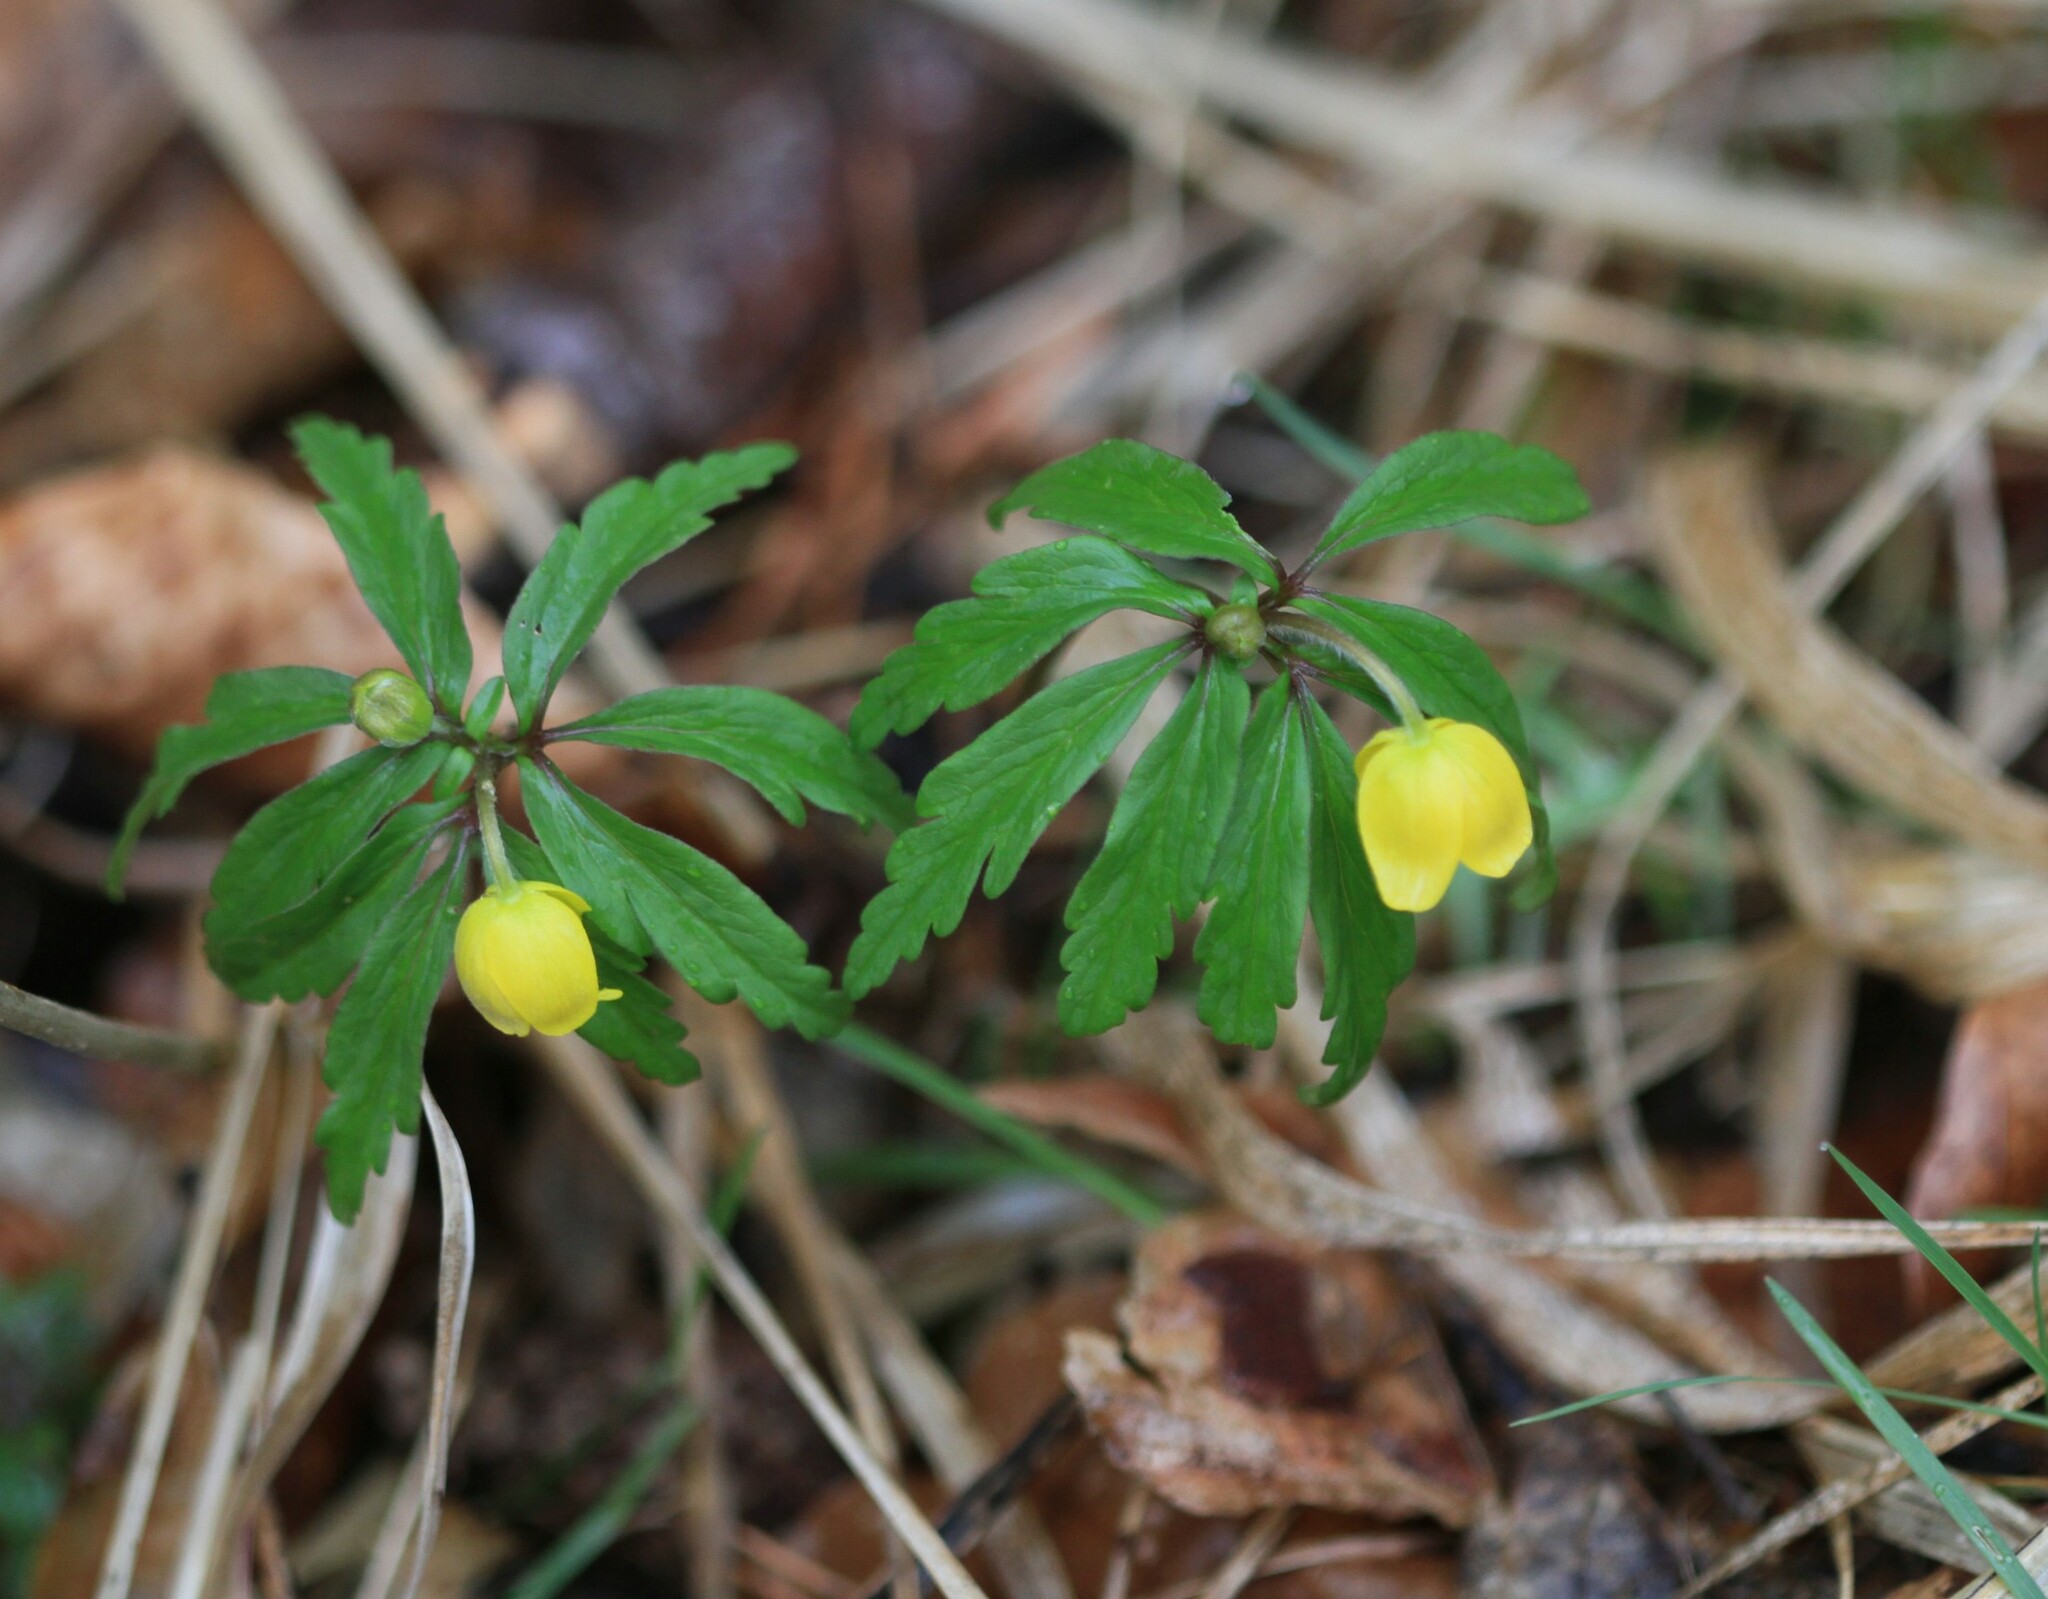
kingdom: Plantae
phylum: Tracheophyta
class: Magnoliopsida
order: Ranunculales
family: Ranunculaceae
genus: Anemone
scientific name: Anemone ranunculoides
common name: Yellow anemone
